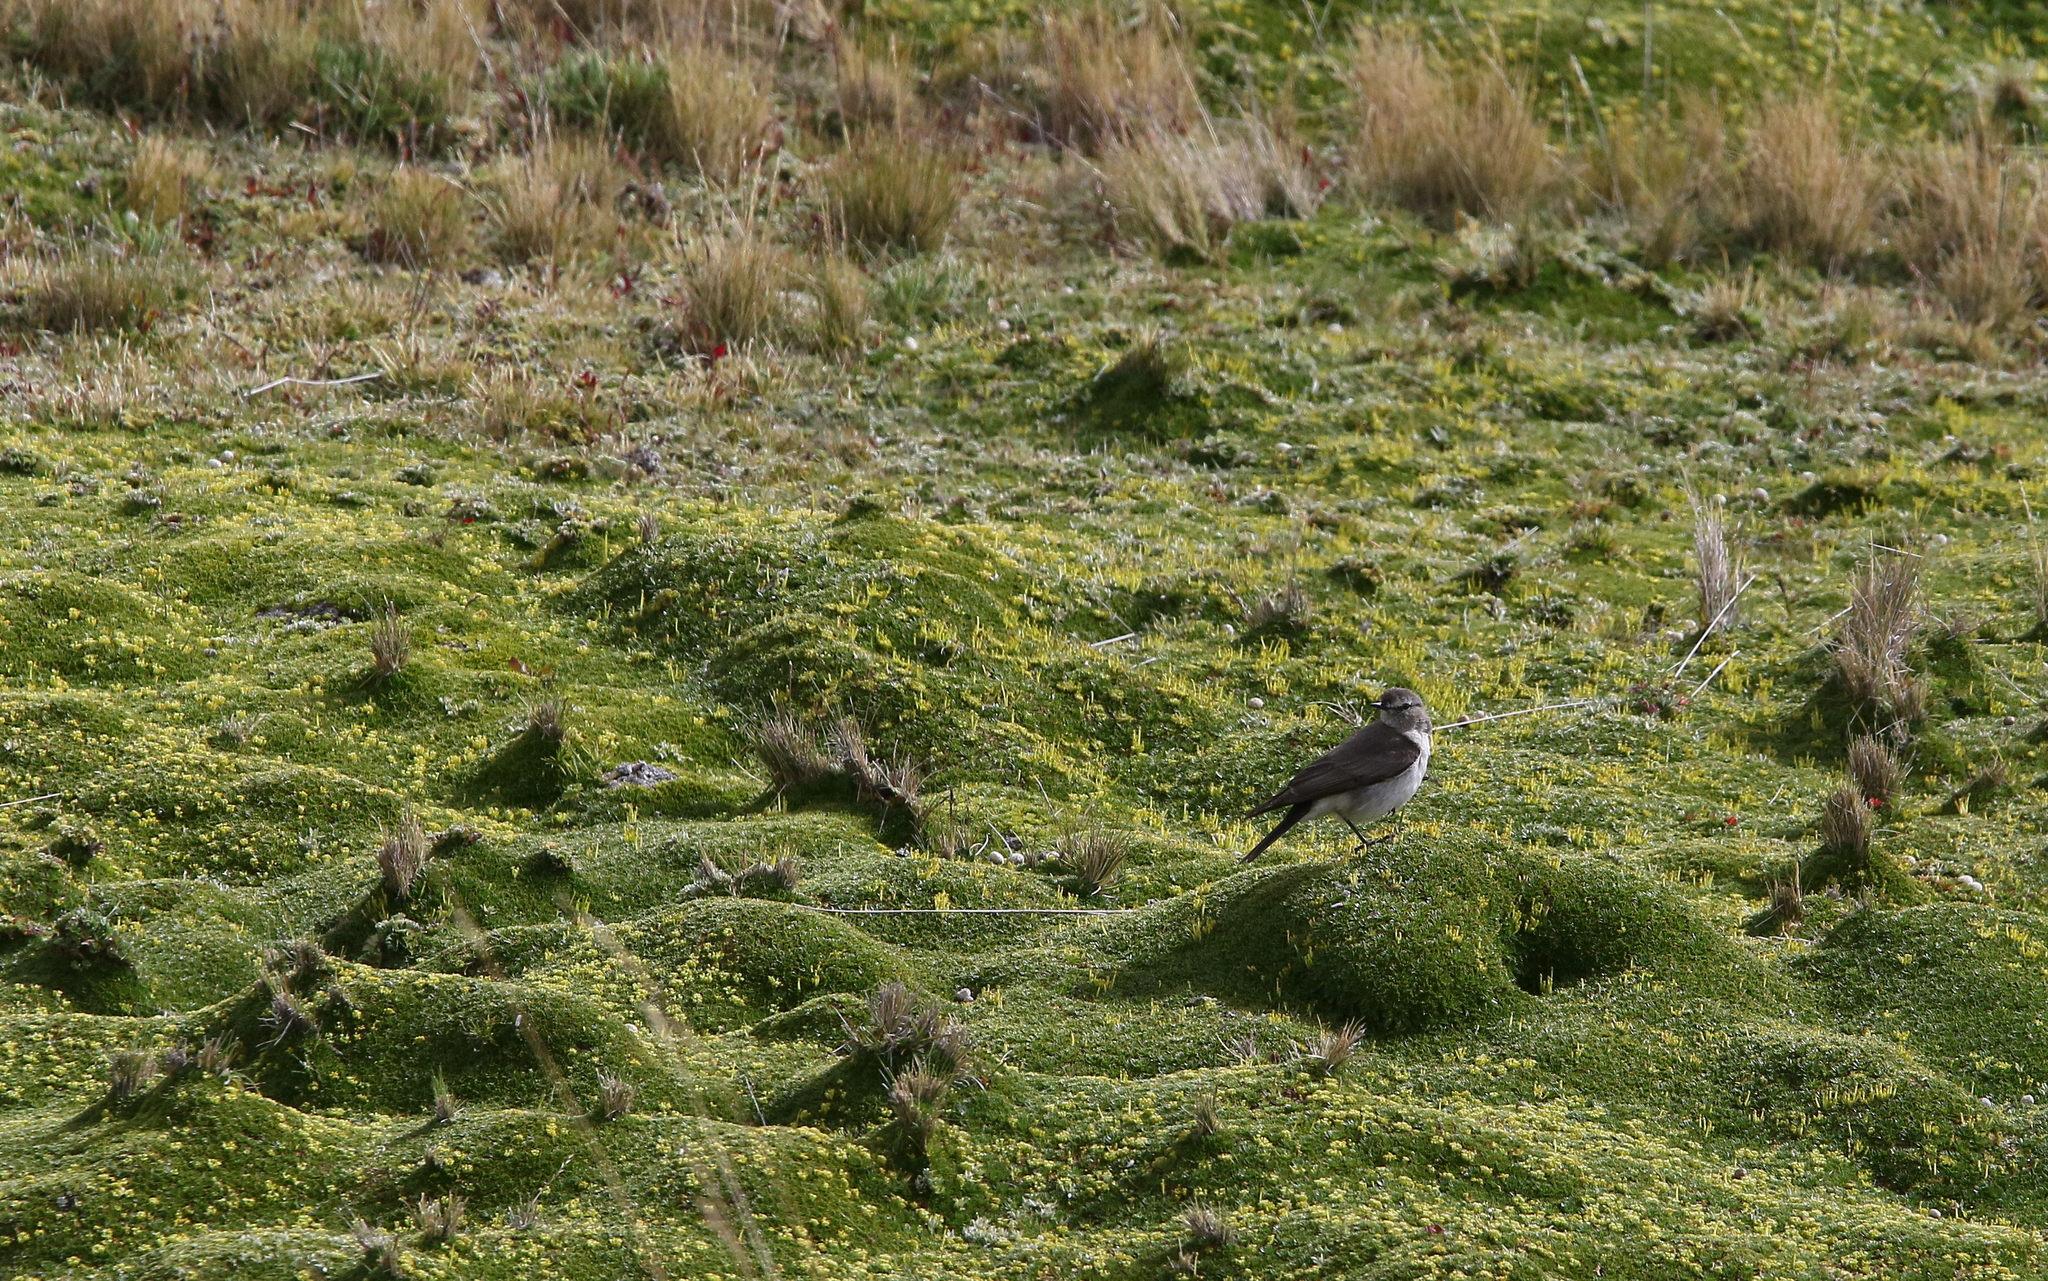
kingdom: Animalia
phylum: Chordata
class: Aves
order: Passeriformes
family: Tyrannidae
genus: Muscisaxicola
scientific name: Muscisaxicola alpinus
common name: Paramo ground tyrant
